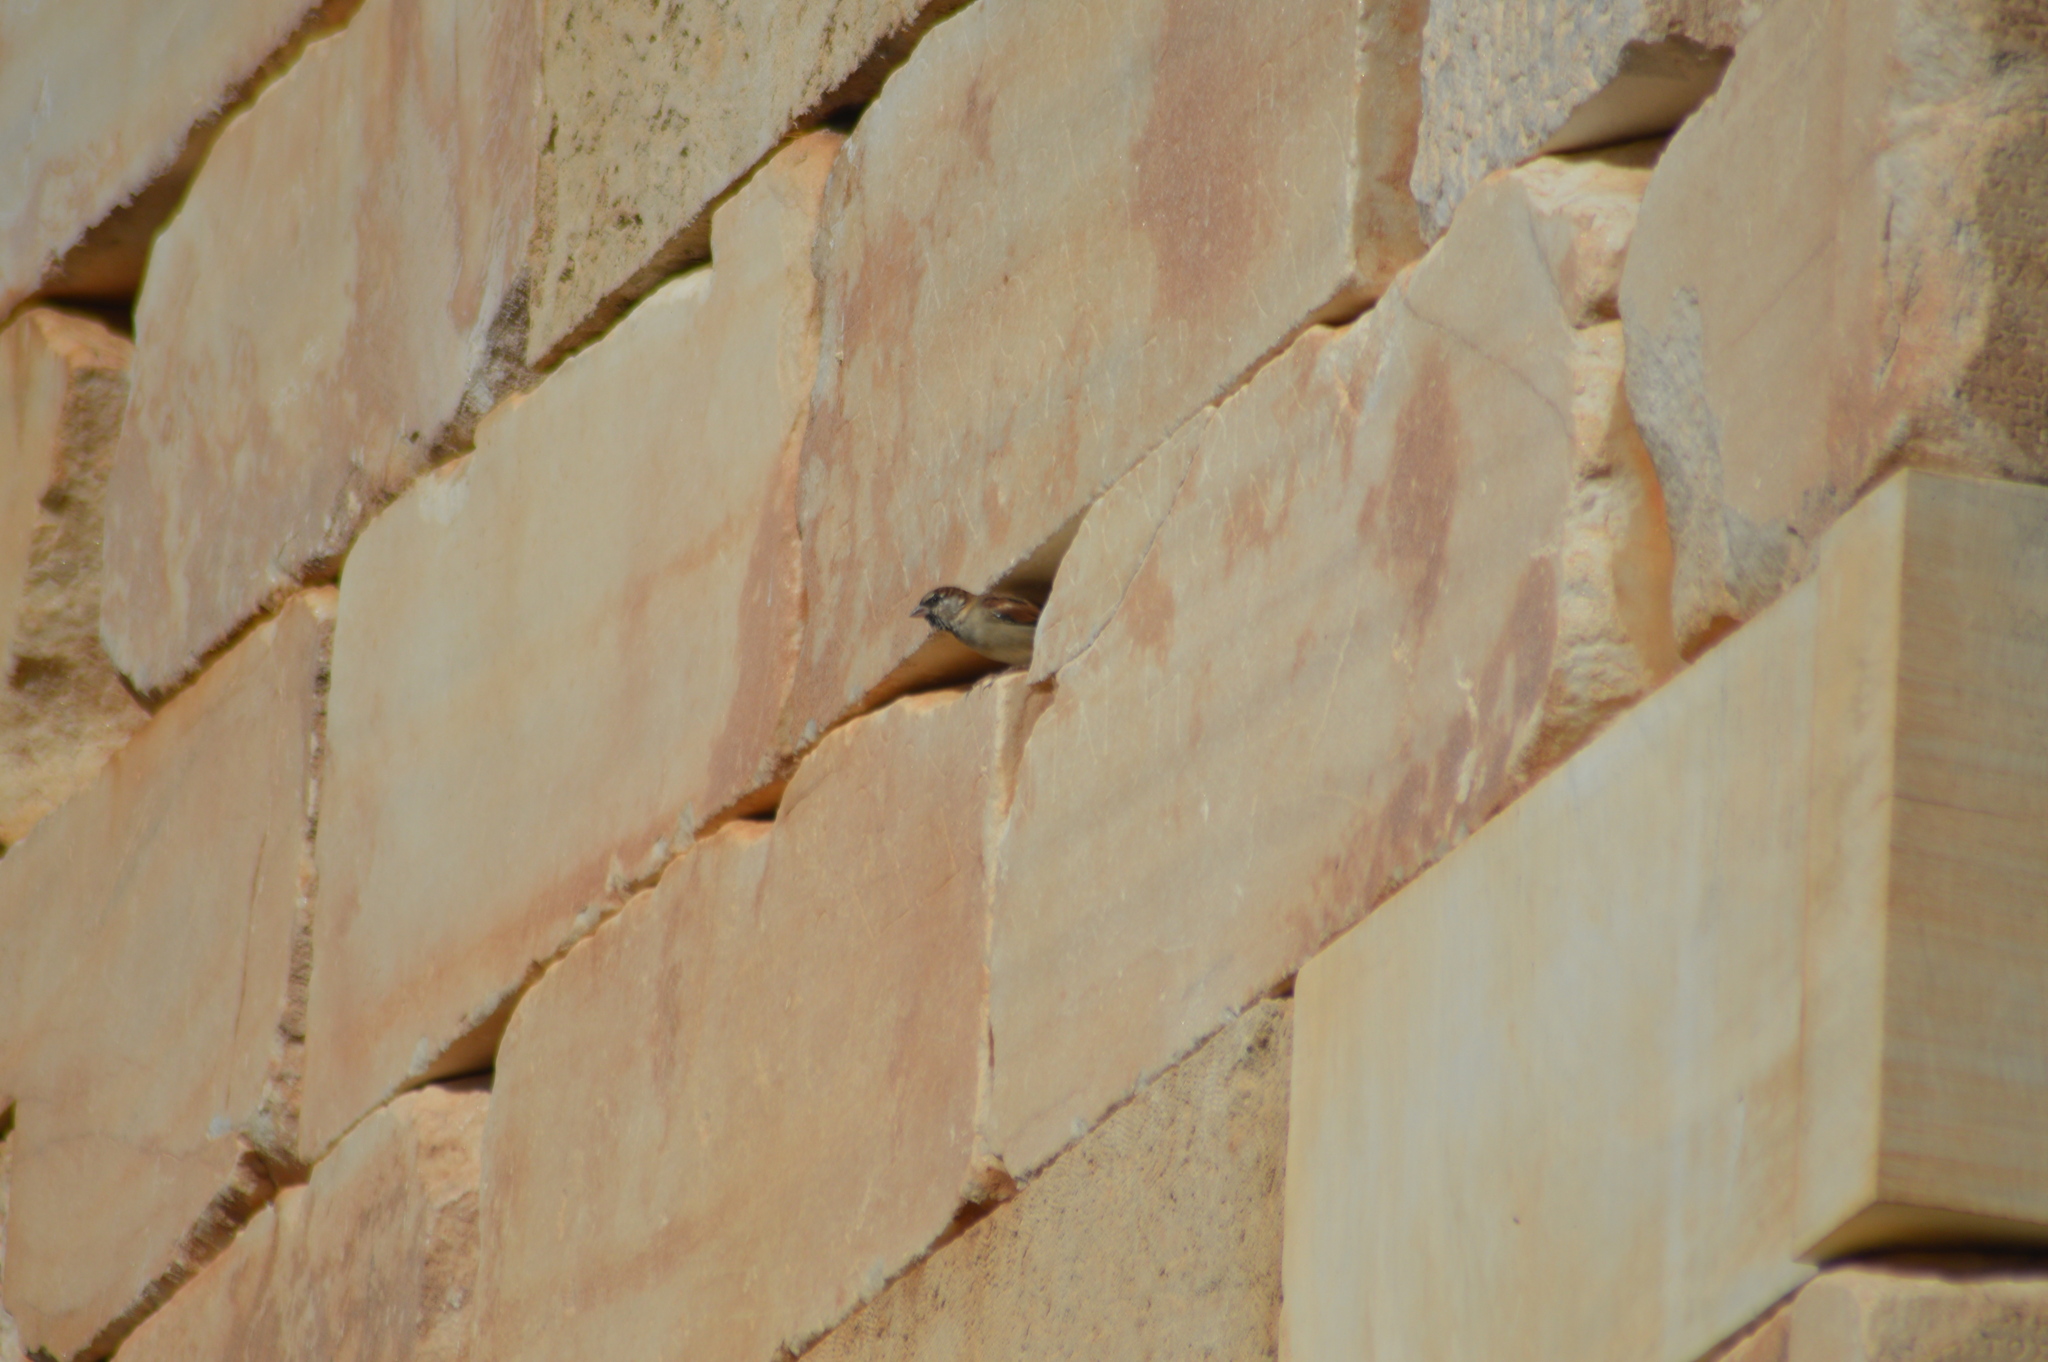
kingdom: Animalia
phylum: Chordata
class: Aves
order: Passeriformes
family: Passeridae
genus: Passer
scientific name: Passer domesticus
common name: House sparrow
